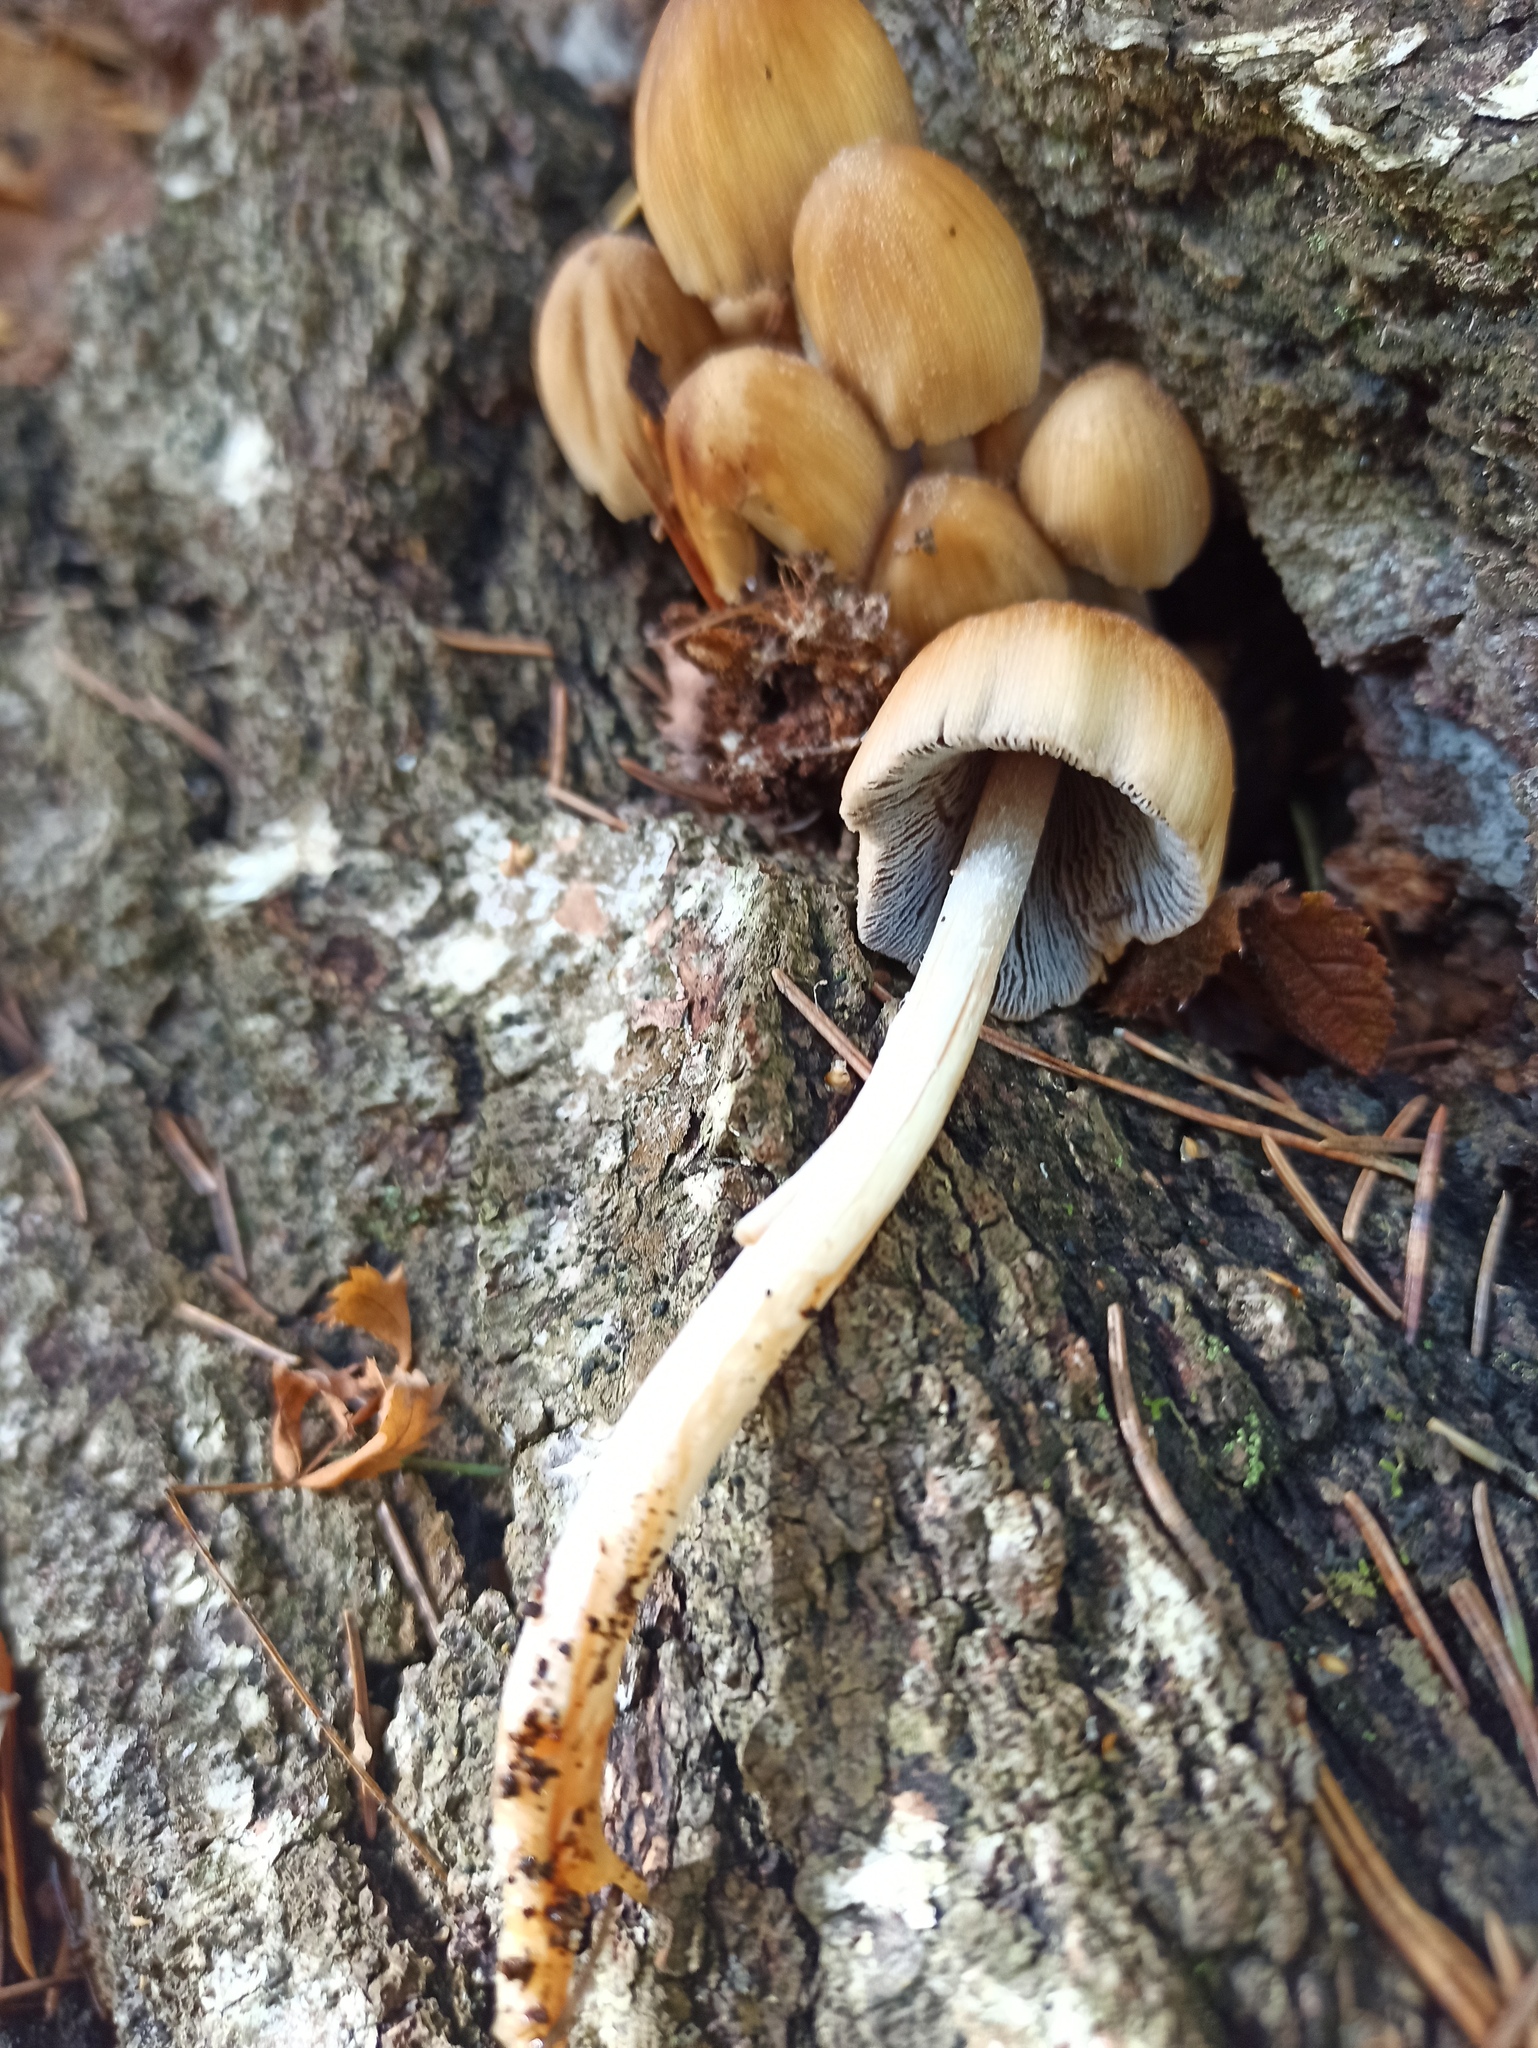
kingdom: Fungi
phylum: Basidiomycota
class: Agaricomycetes
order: Agaricales
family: Psathyrellaceae
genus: Coprinellus
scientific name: Coprinellus micaceus
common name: Glistening ink-cap
